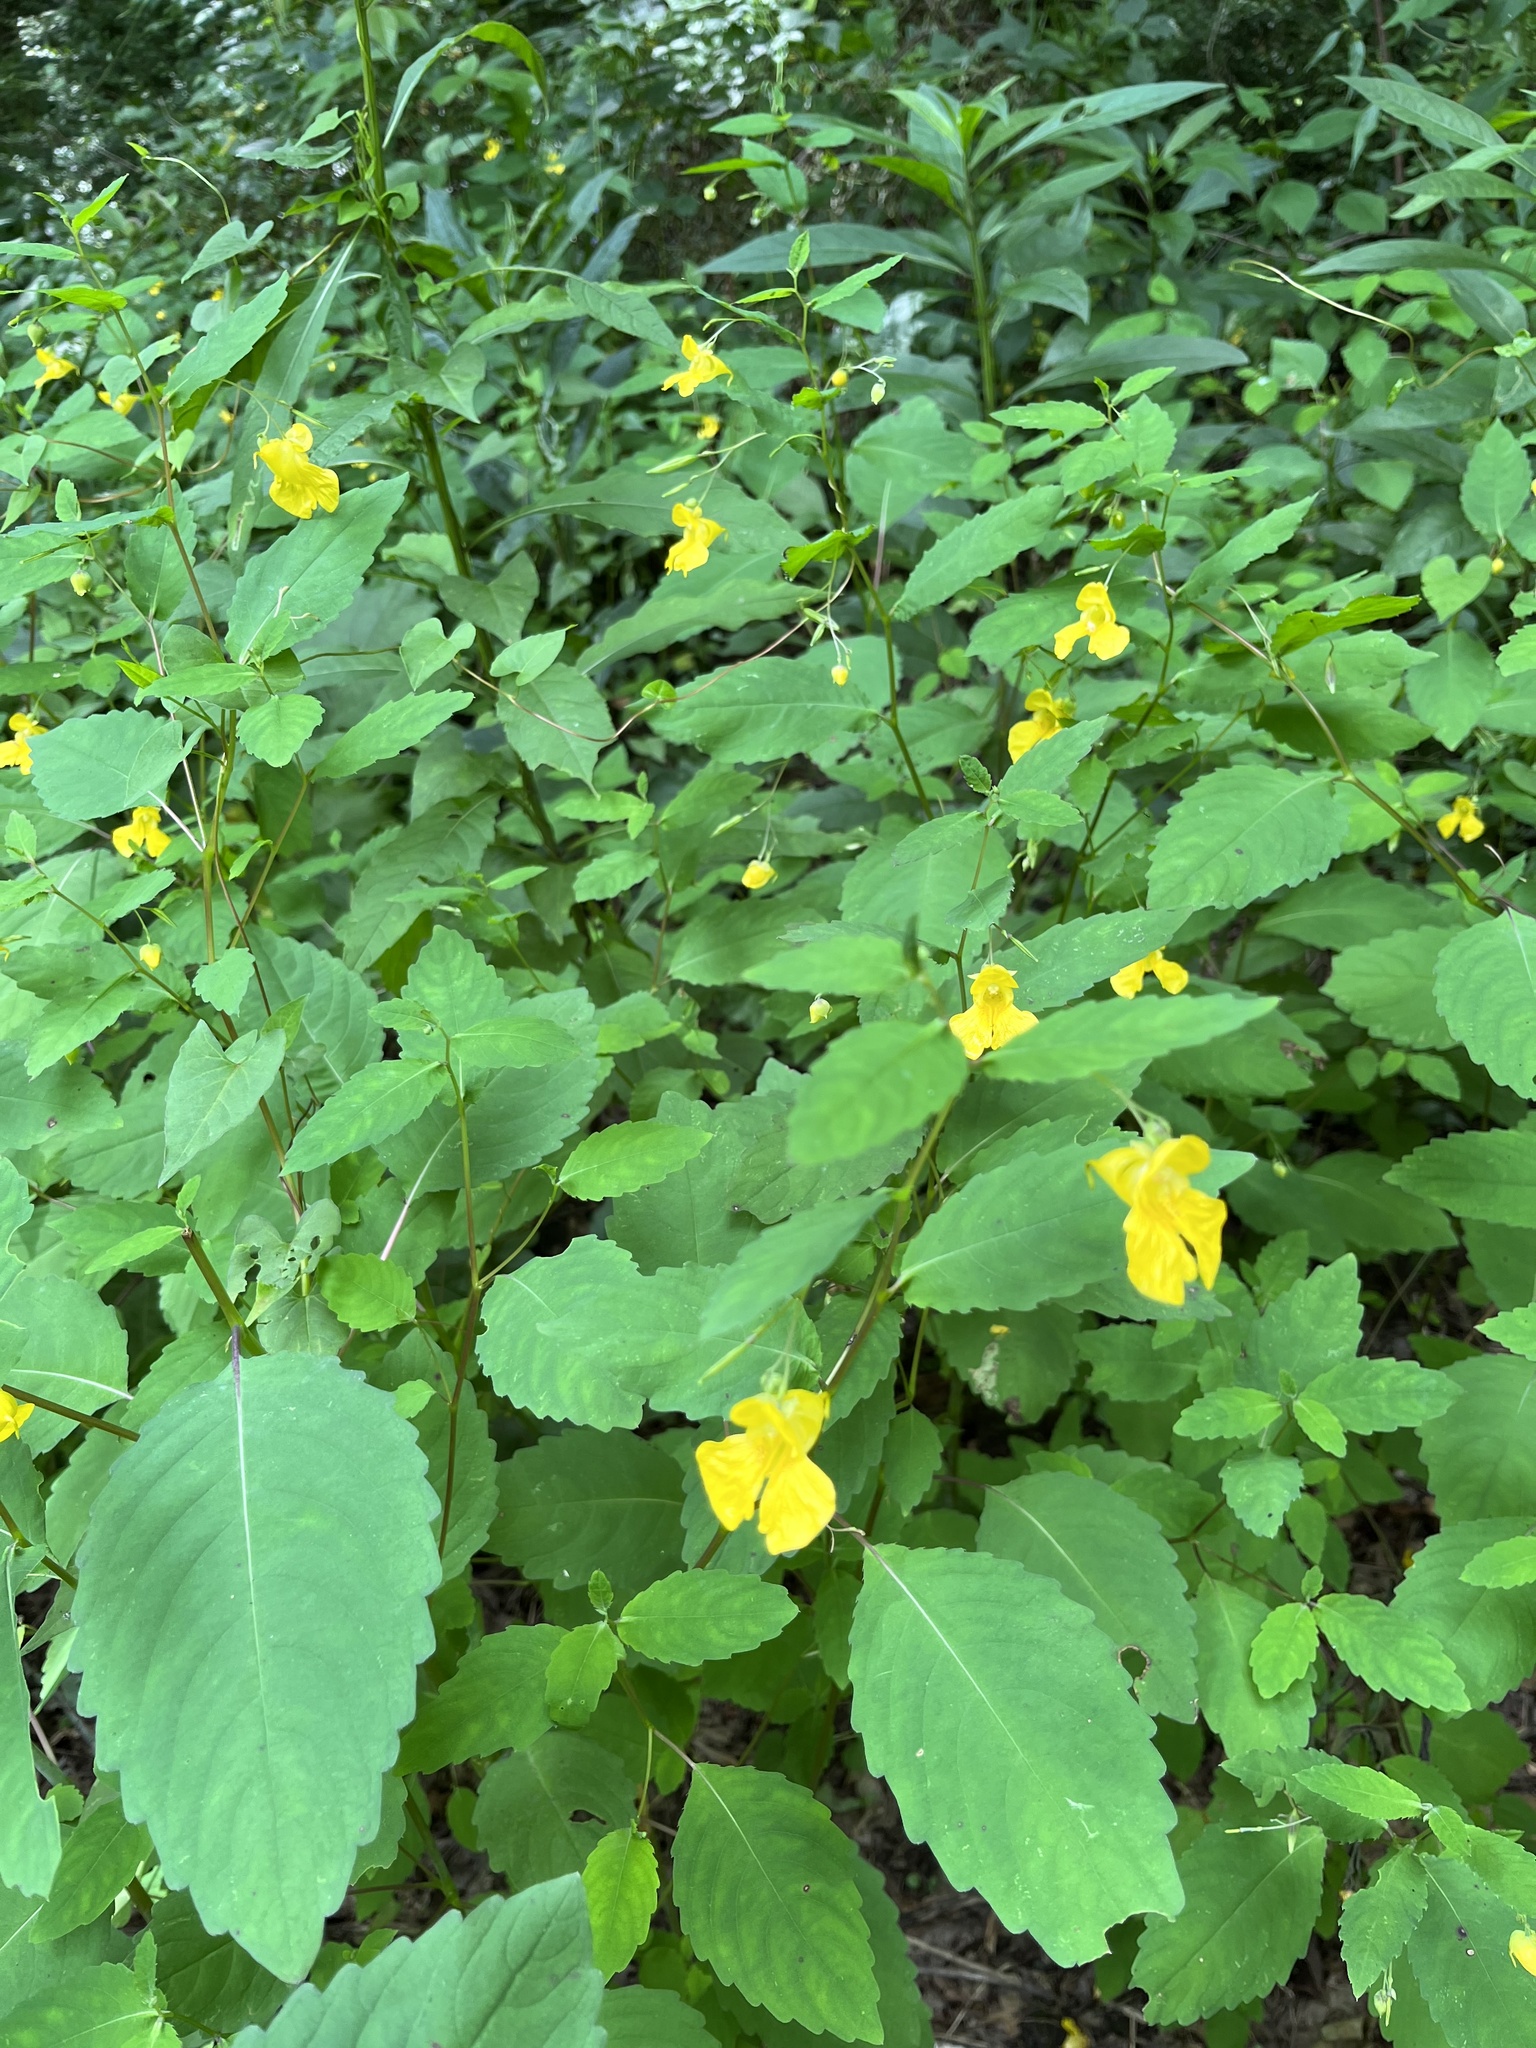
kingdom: Plantae
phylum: Tracheophyta
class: Magnoliopsida
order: Ericales
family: Balsaminaceae
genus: Impatiens
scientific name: Impatiens pallida
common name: Pale snapweed
